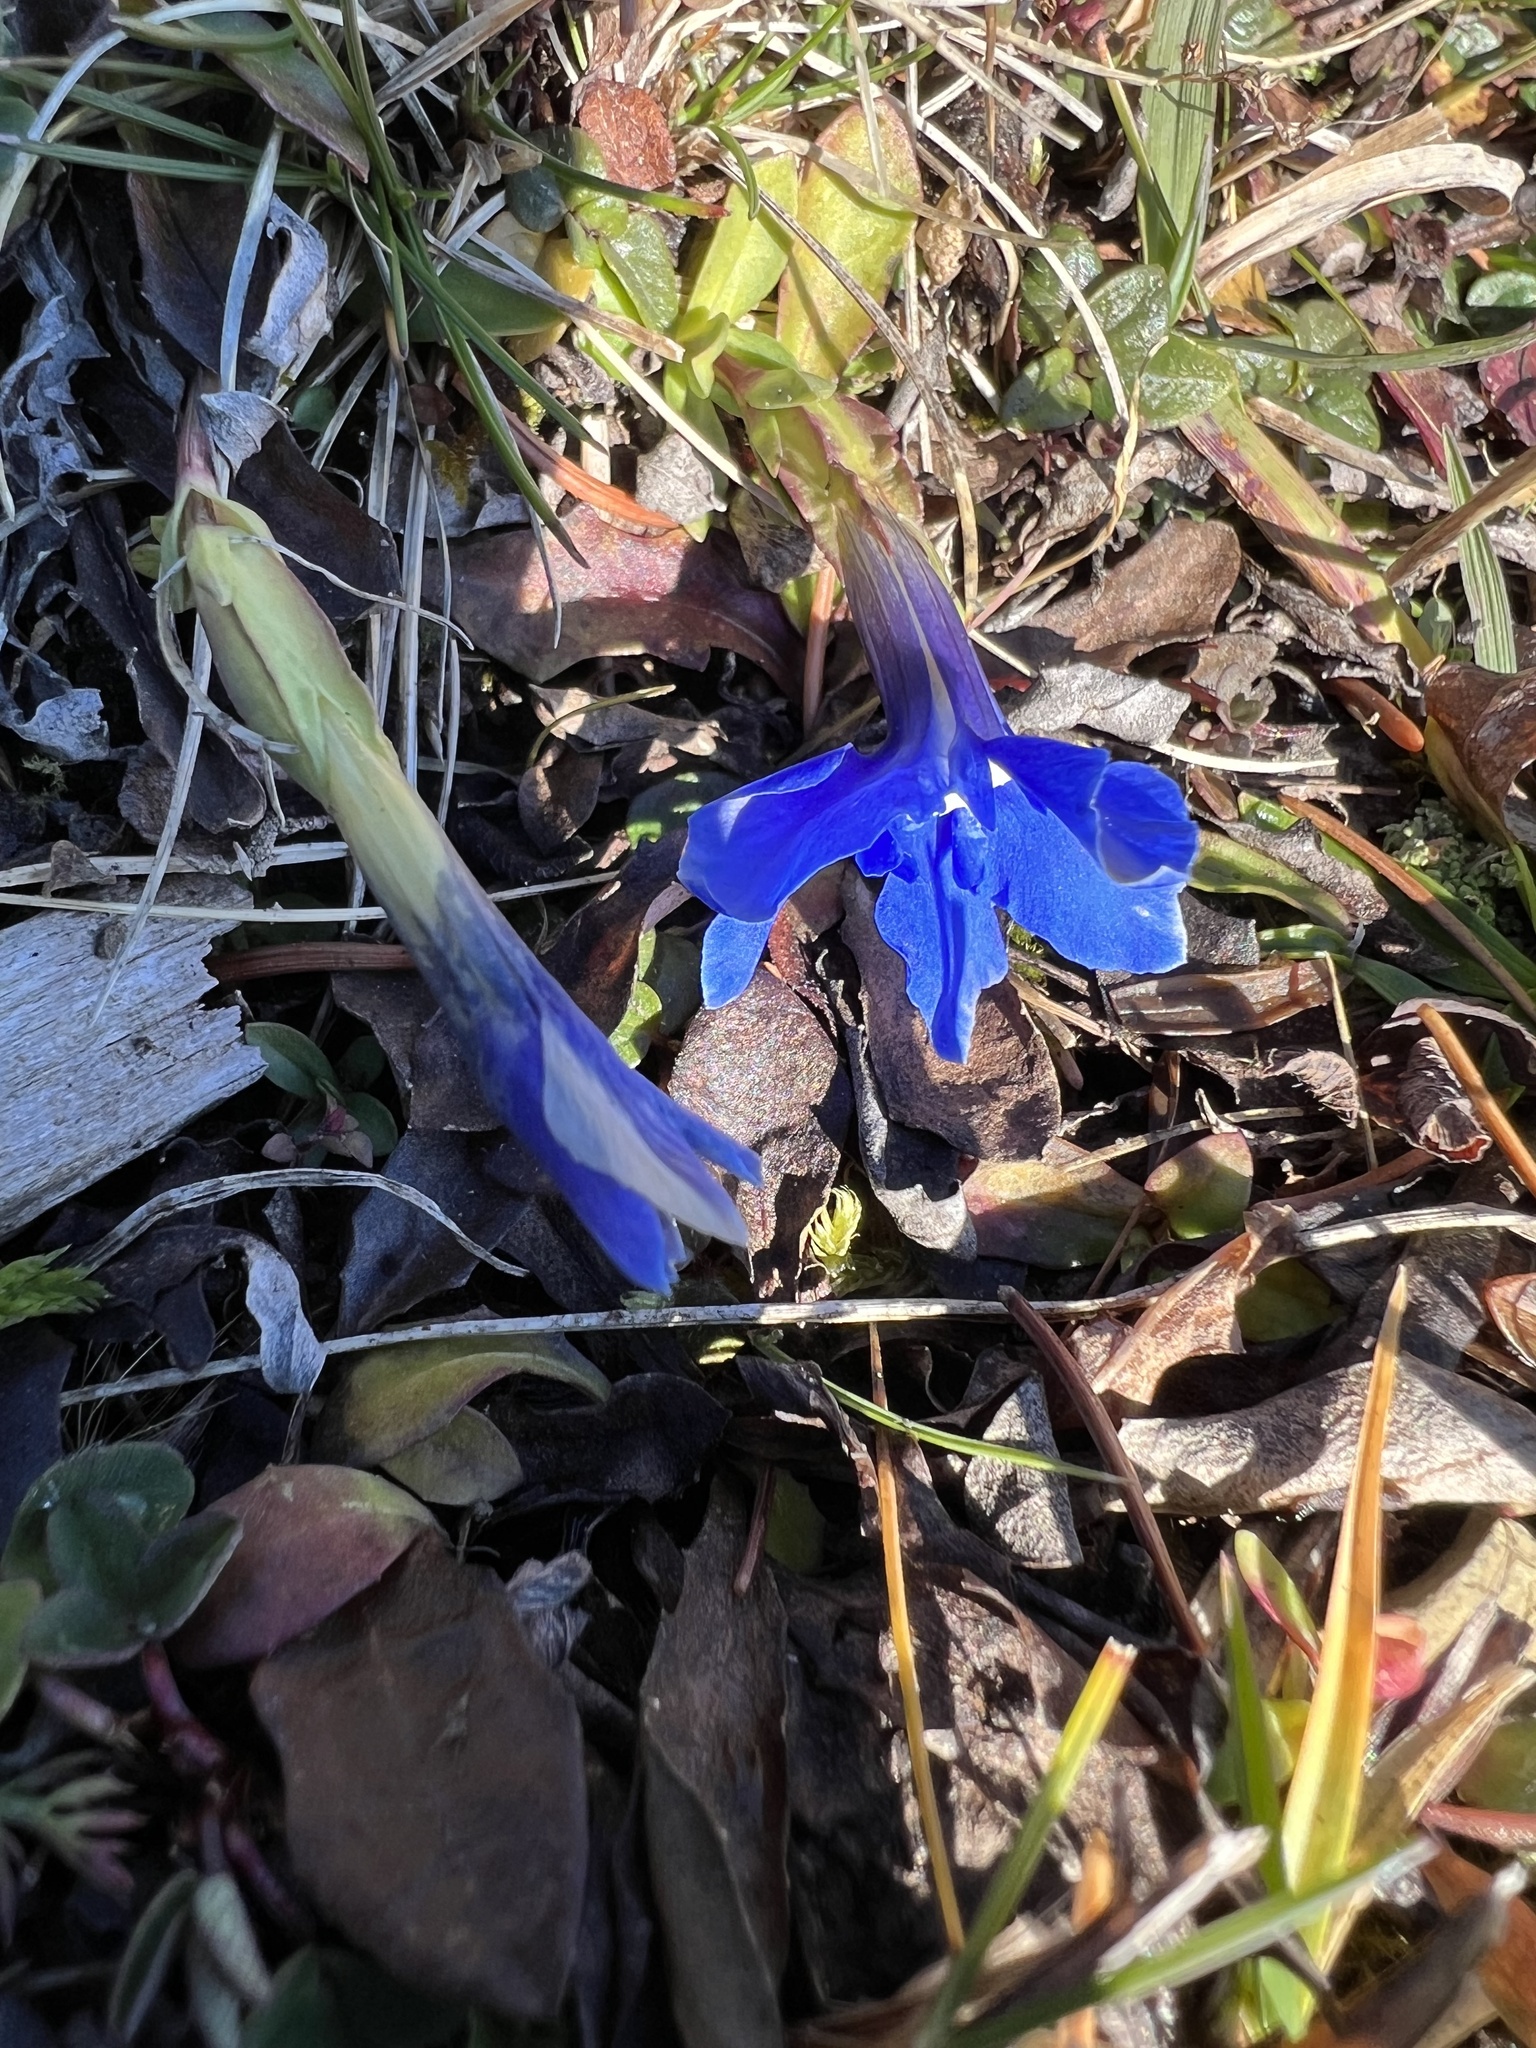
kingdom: Plantae
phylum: Tracheophyta
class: Magnoliopsida
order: Gentianales
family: Gentianaceae
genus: Gentiana
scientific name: Gentiana verna
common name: Spring gentian
